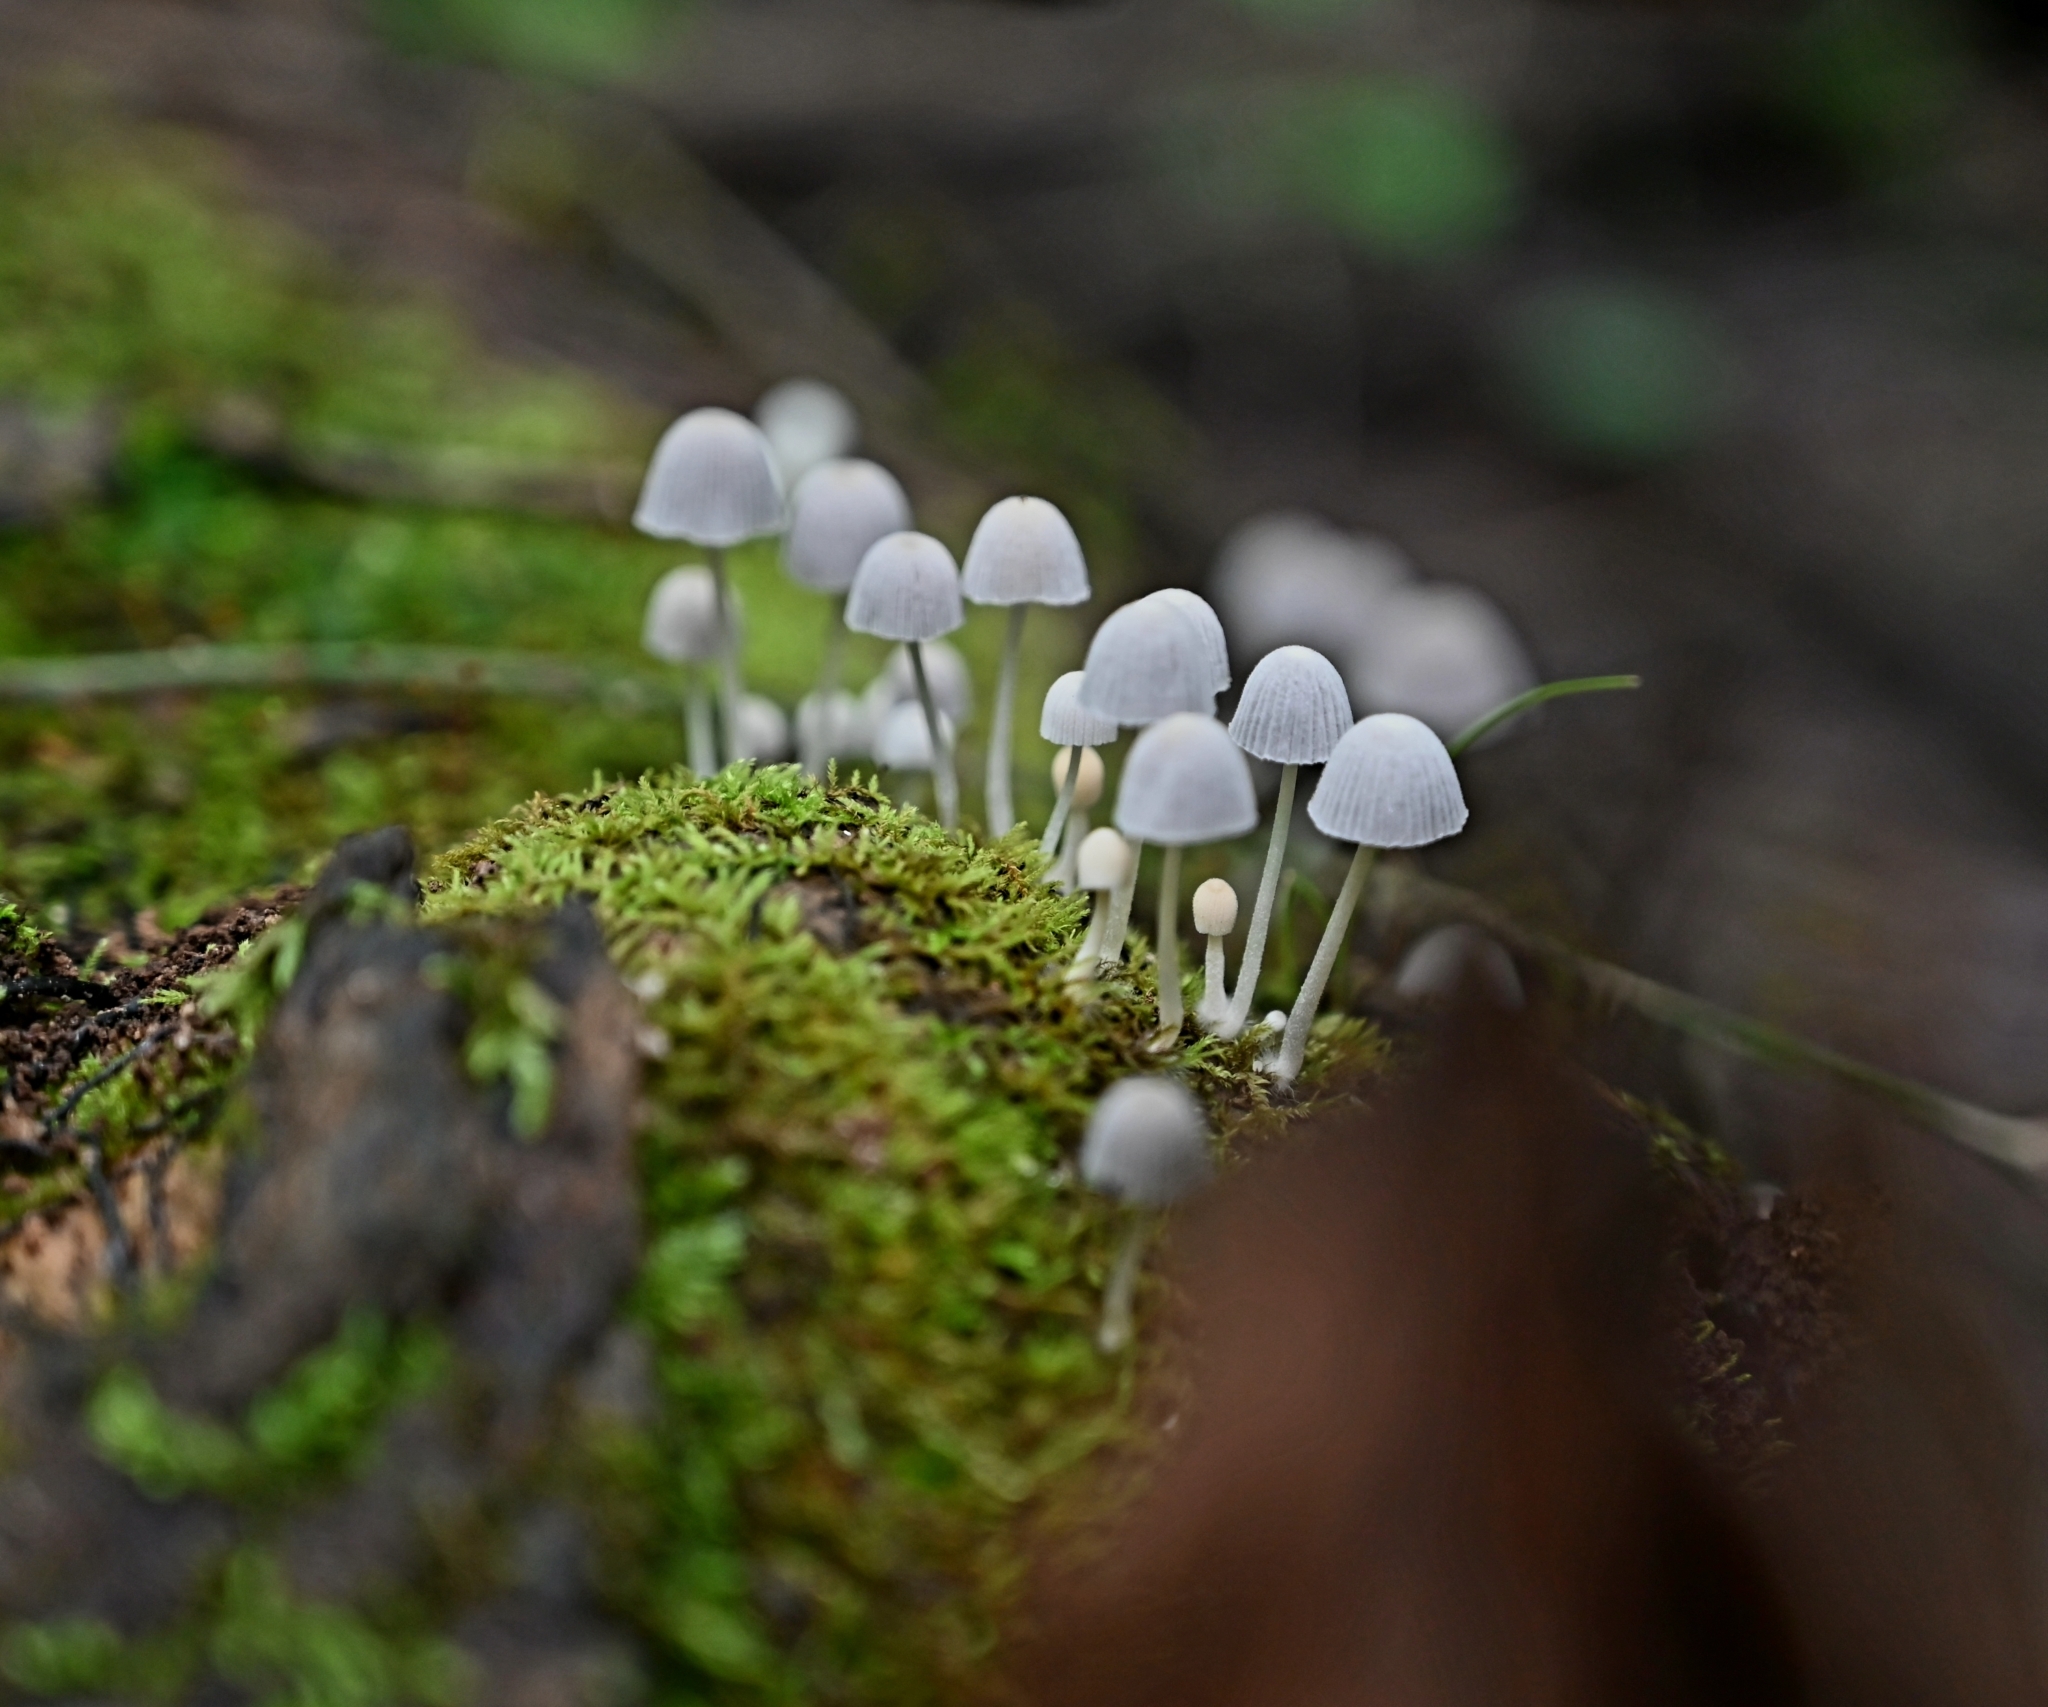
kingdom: Fungi
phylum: Basidiomycota
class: Agaricomycetes
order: Agaricales
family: Psathyrellaceae
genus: Coprinellus
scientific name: Coprinellus disseminatus
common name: Fairies' bonnets
